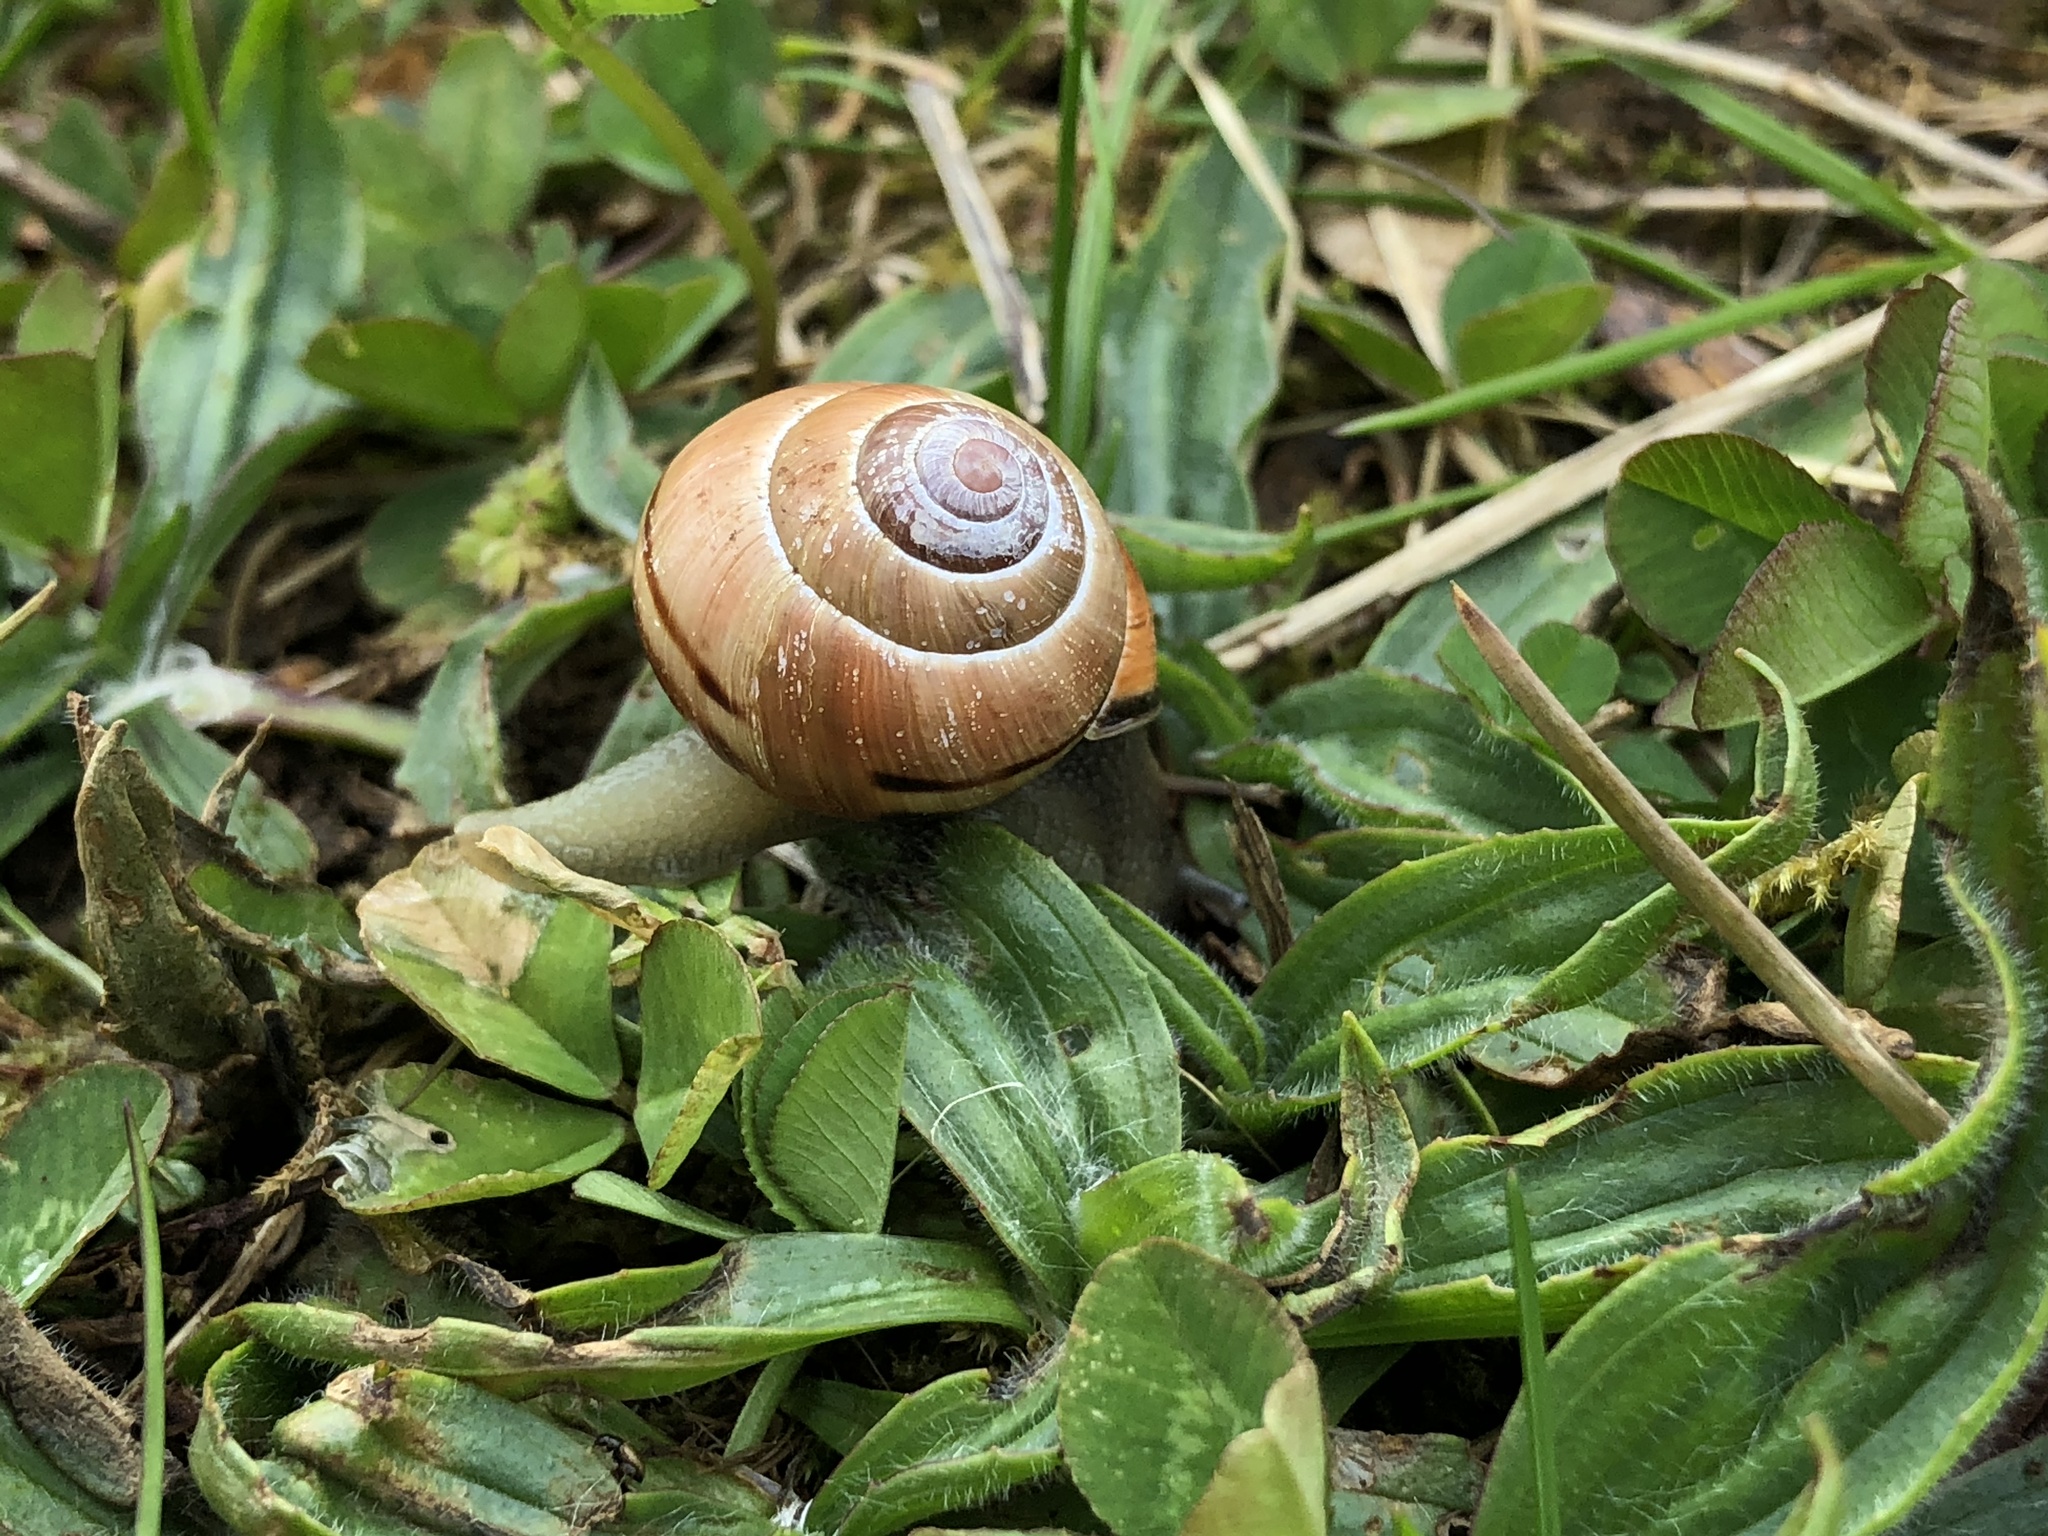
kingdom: Animalia
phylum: Mollusca
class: Gastropoda
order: Stylommatophora
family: Helicidae
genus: Cepaea
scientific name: Cepaea nemoralis
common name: Grovesnail
